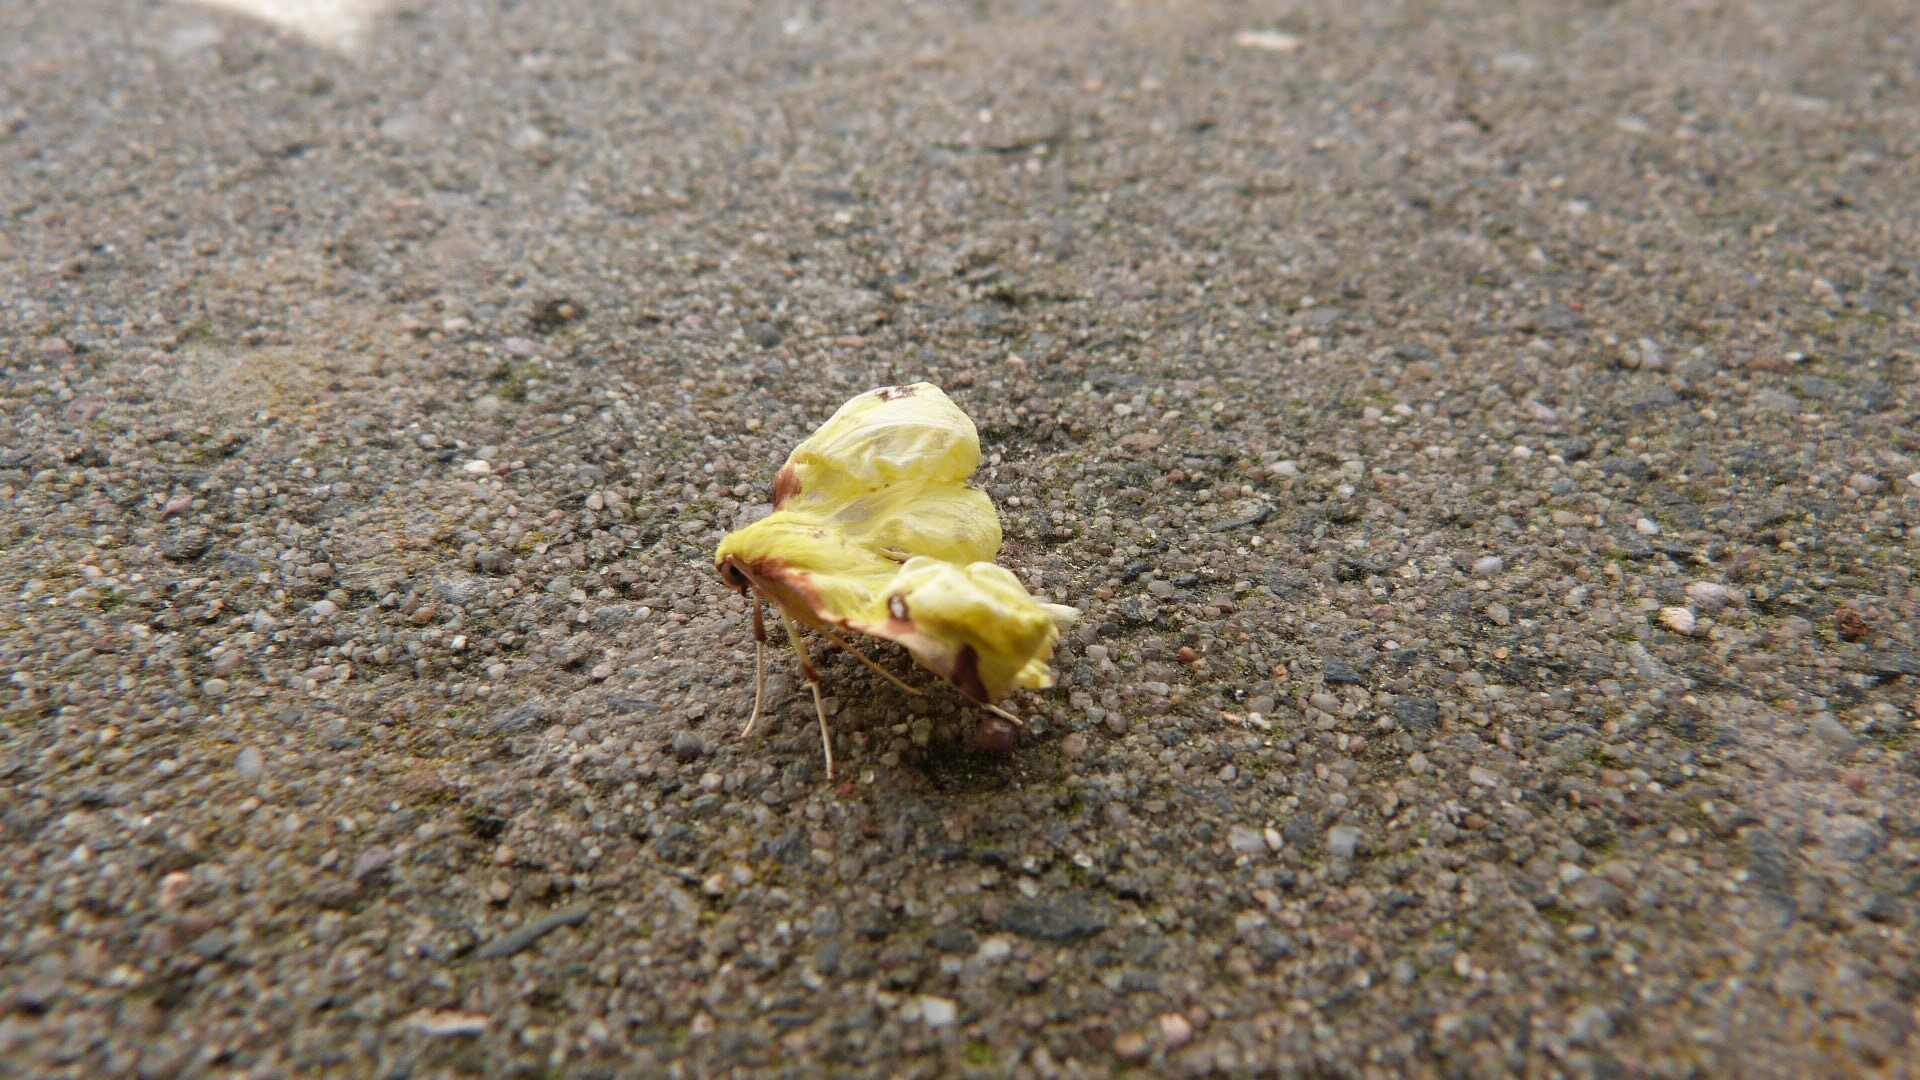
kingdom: Animalia
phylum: Arthropoda
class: Insecta
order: Lepidoptera
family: Geometridae
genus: Opisthograptis
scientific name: Opisthograptis luteolata
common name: Brimstone moth
